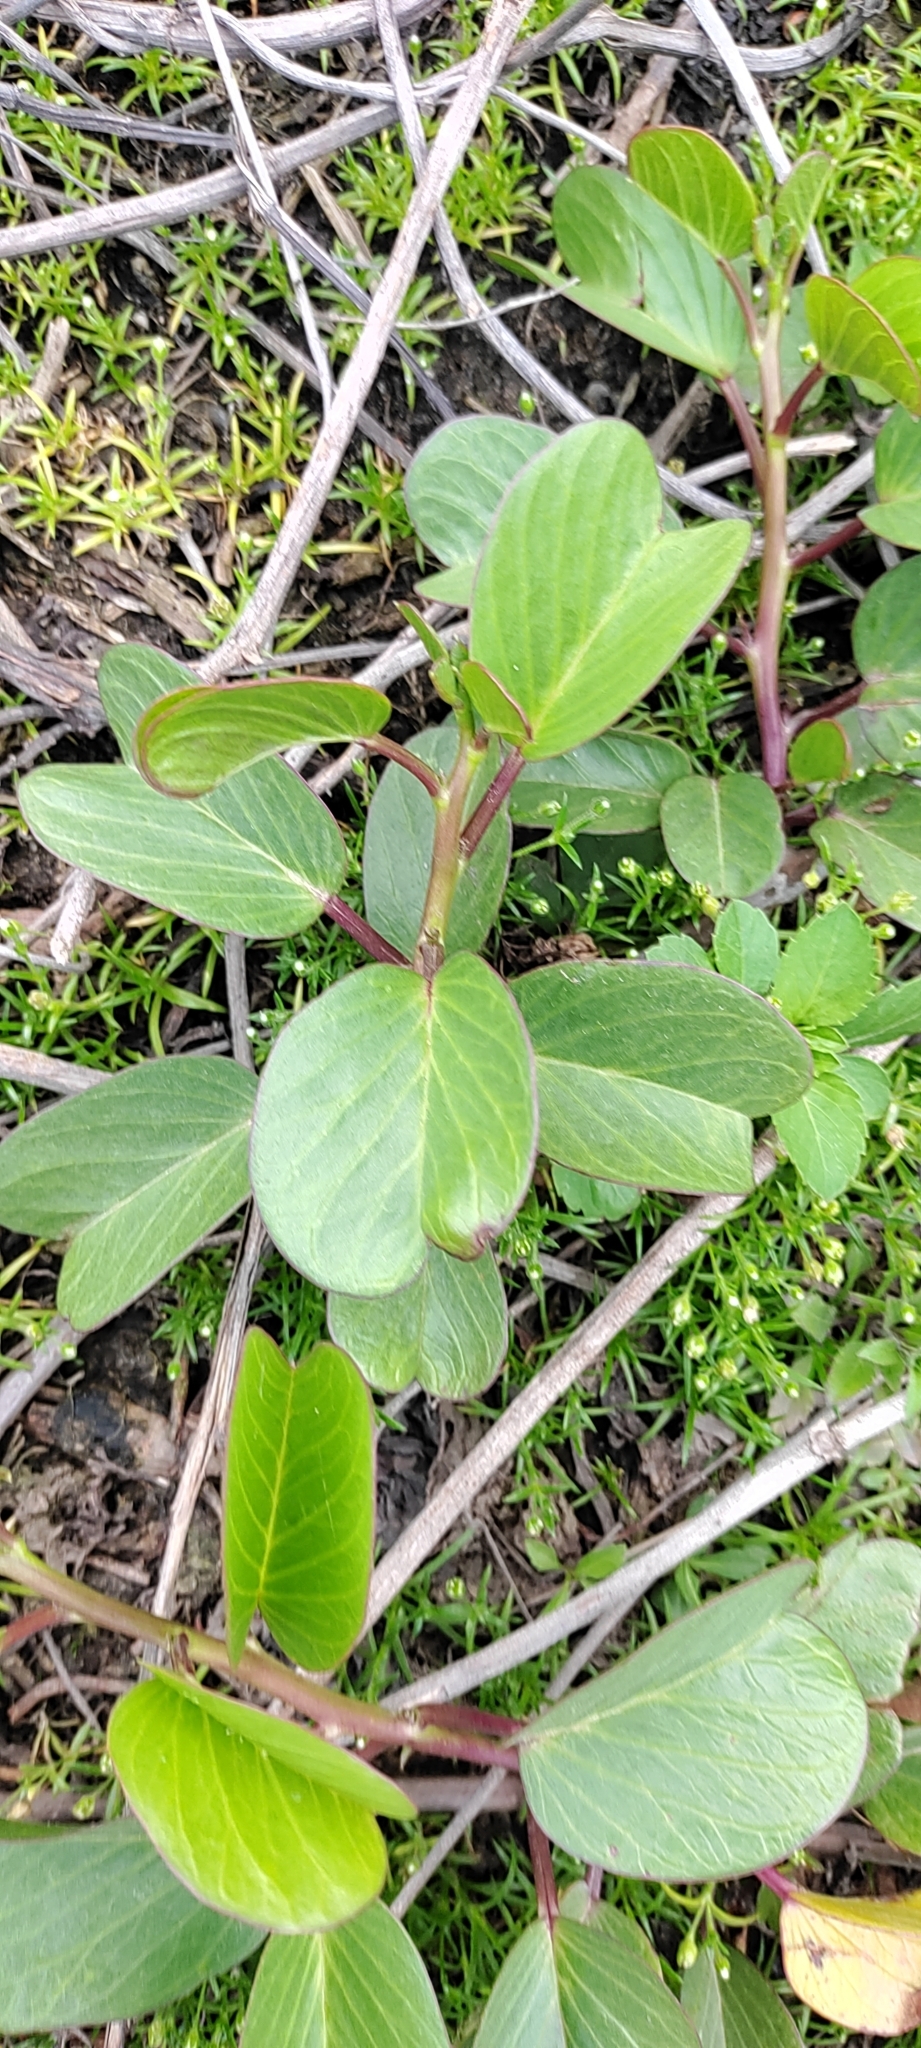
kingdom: Plantae
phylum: Tracheophyta
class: Magnoliopsida
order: Solanales
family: Convolvulaceae
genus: Ipomoea
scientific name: Ipomoea pes-caprae
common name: Beach morning glory
